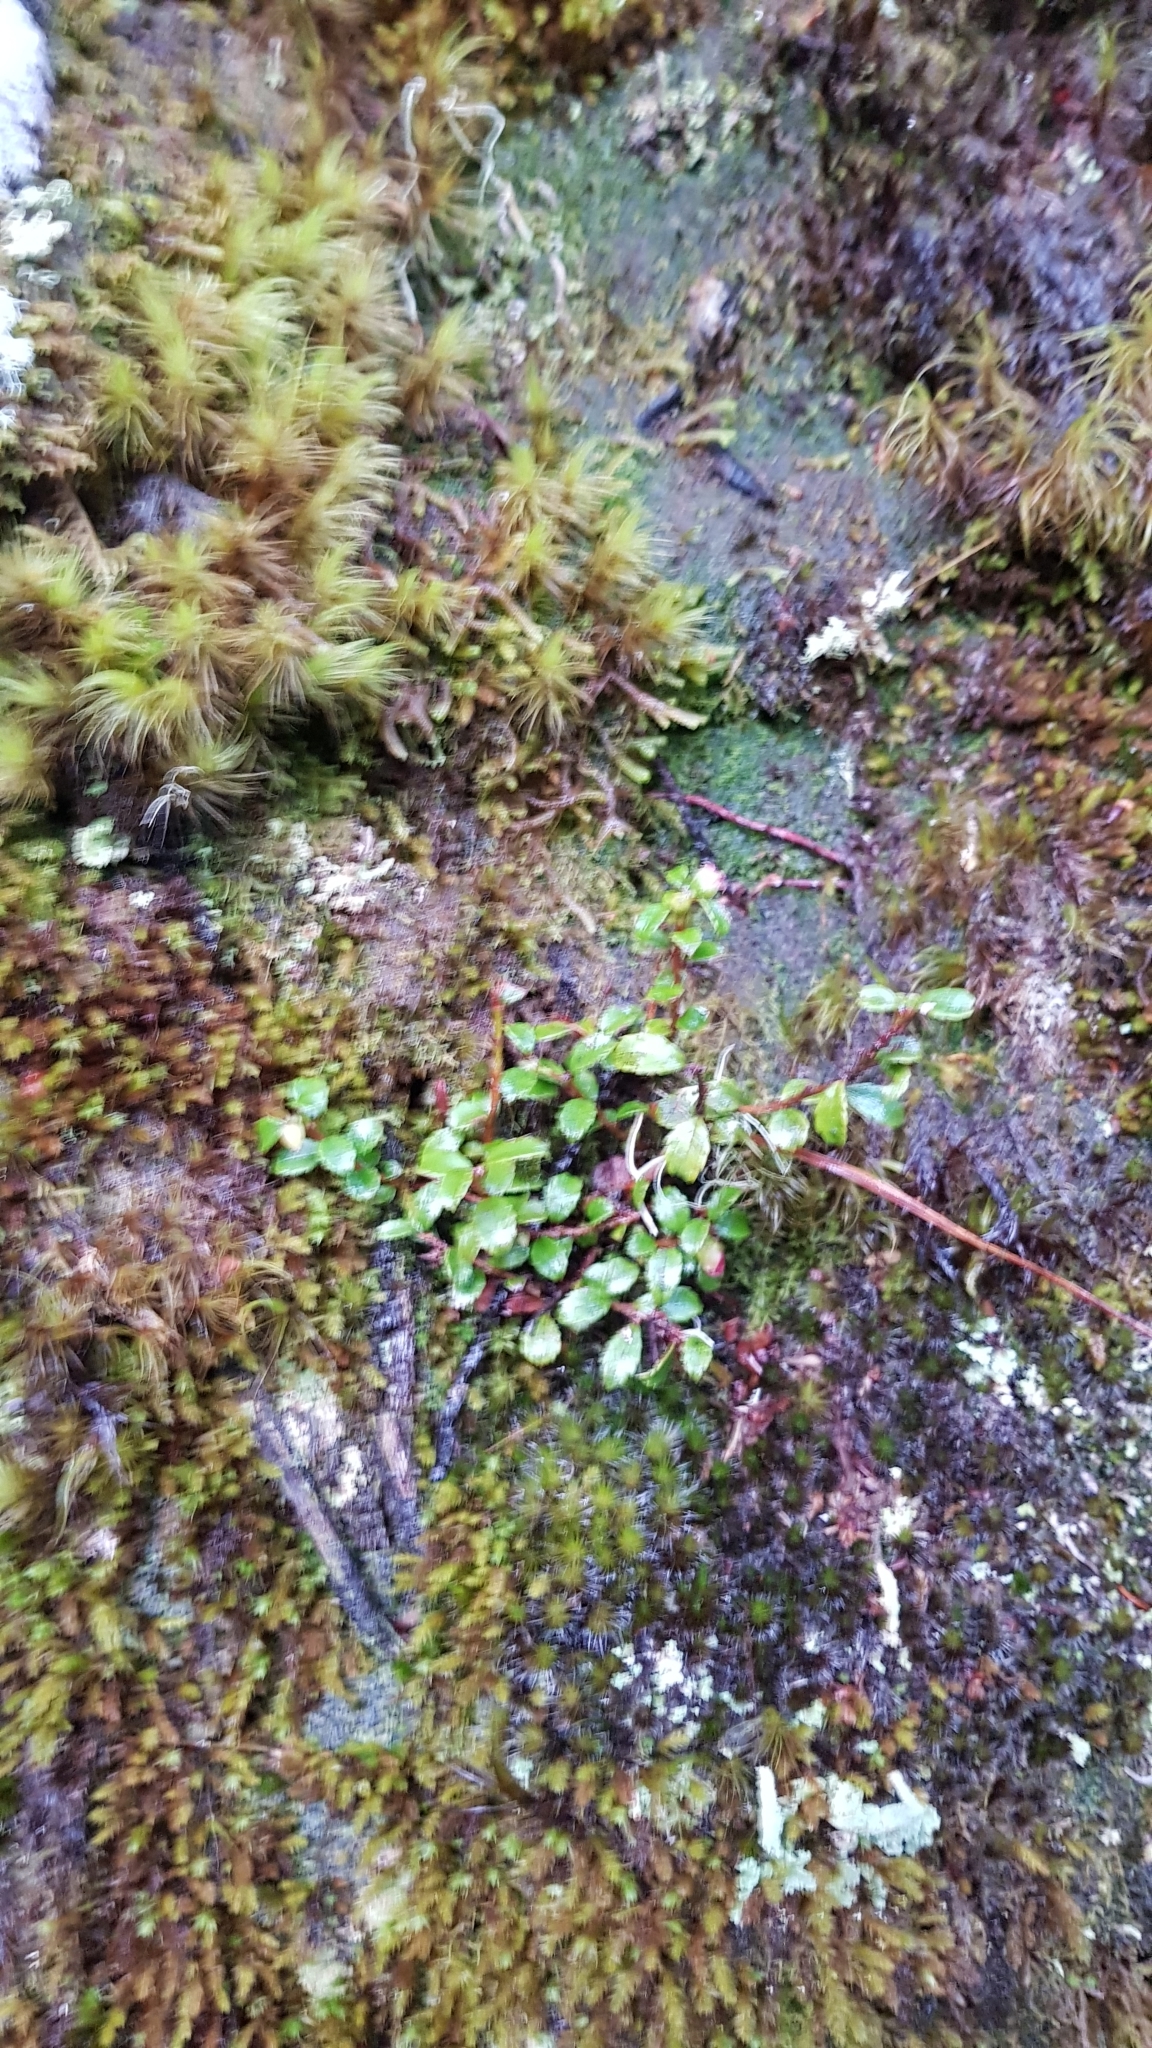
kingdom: Plantae
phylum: Tracheophyta
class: Magnoliopsida
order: Ericales
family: Ericaceae
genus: Gaultheria
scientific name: Gaultheria depressa
